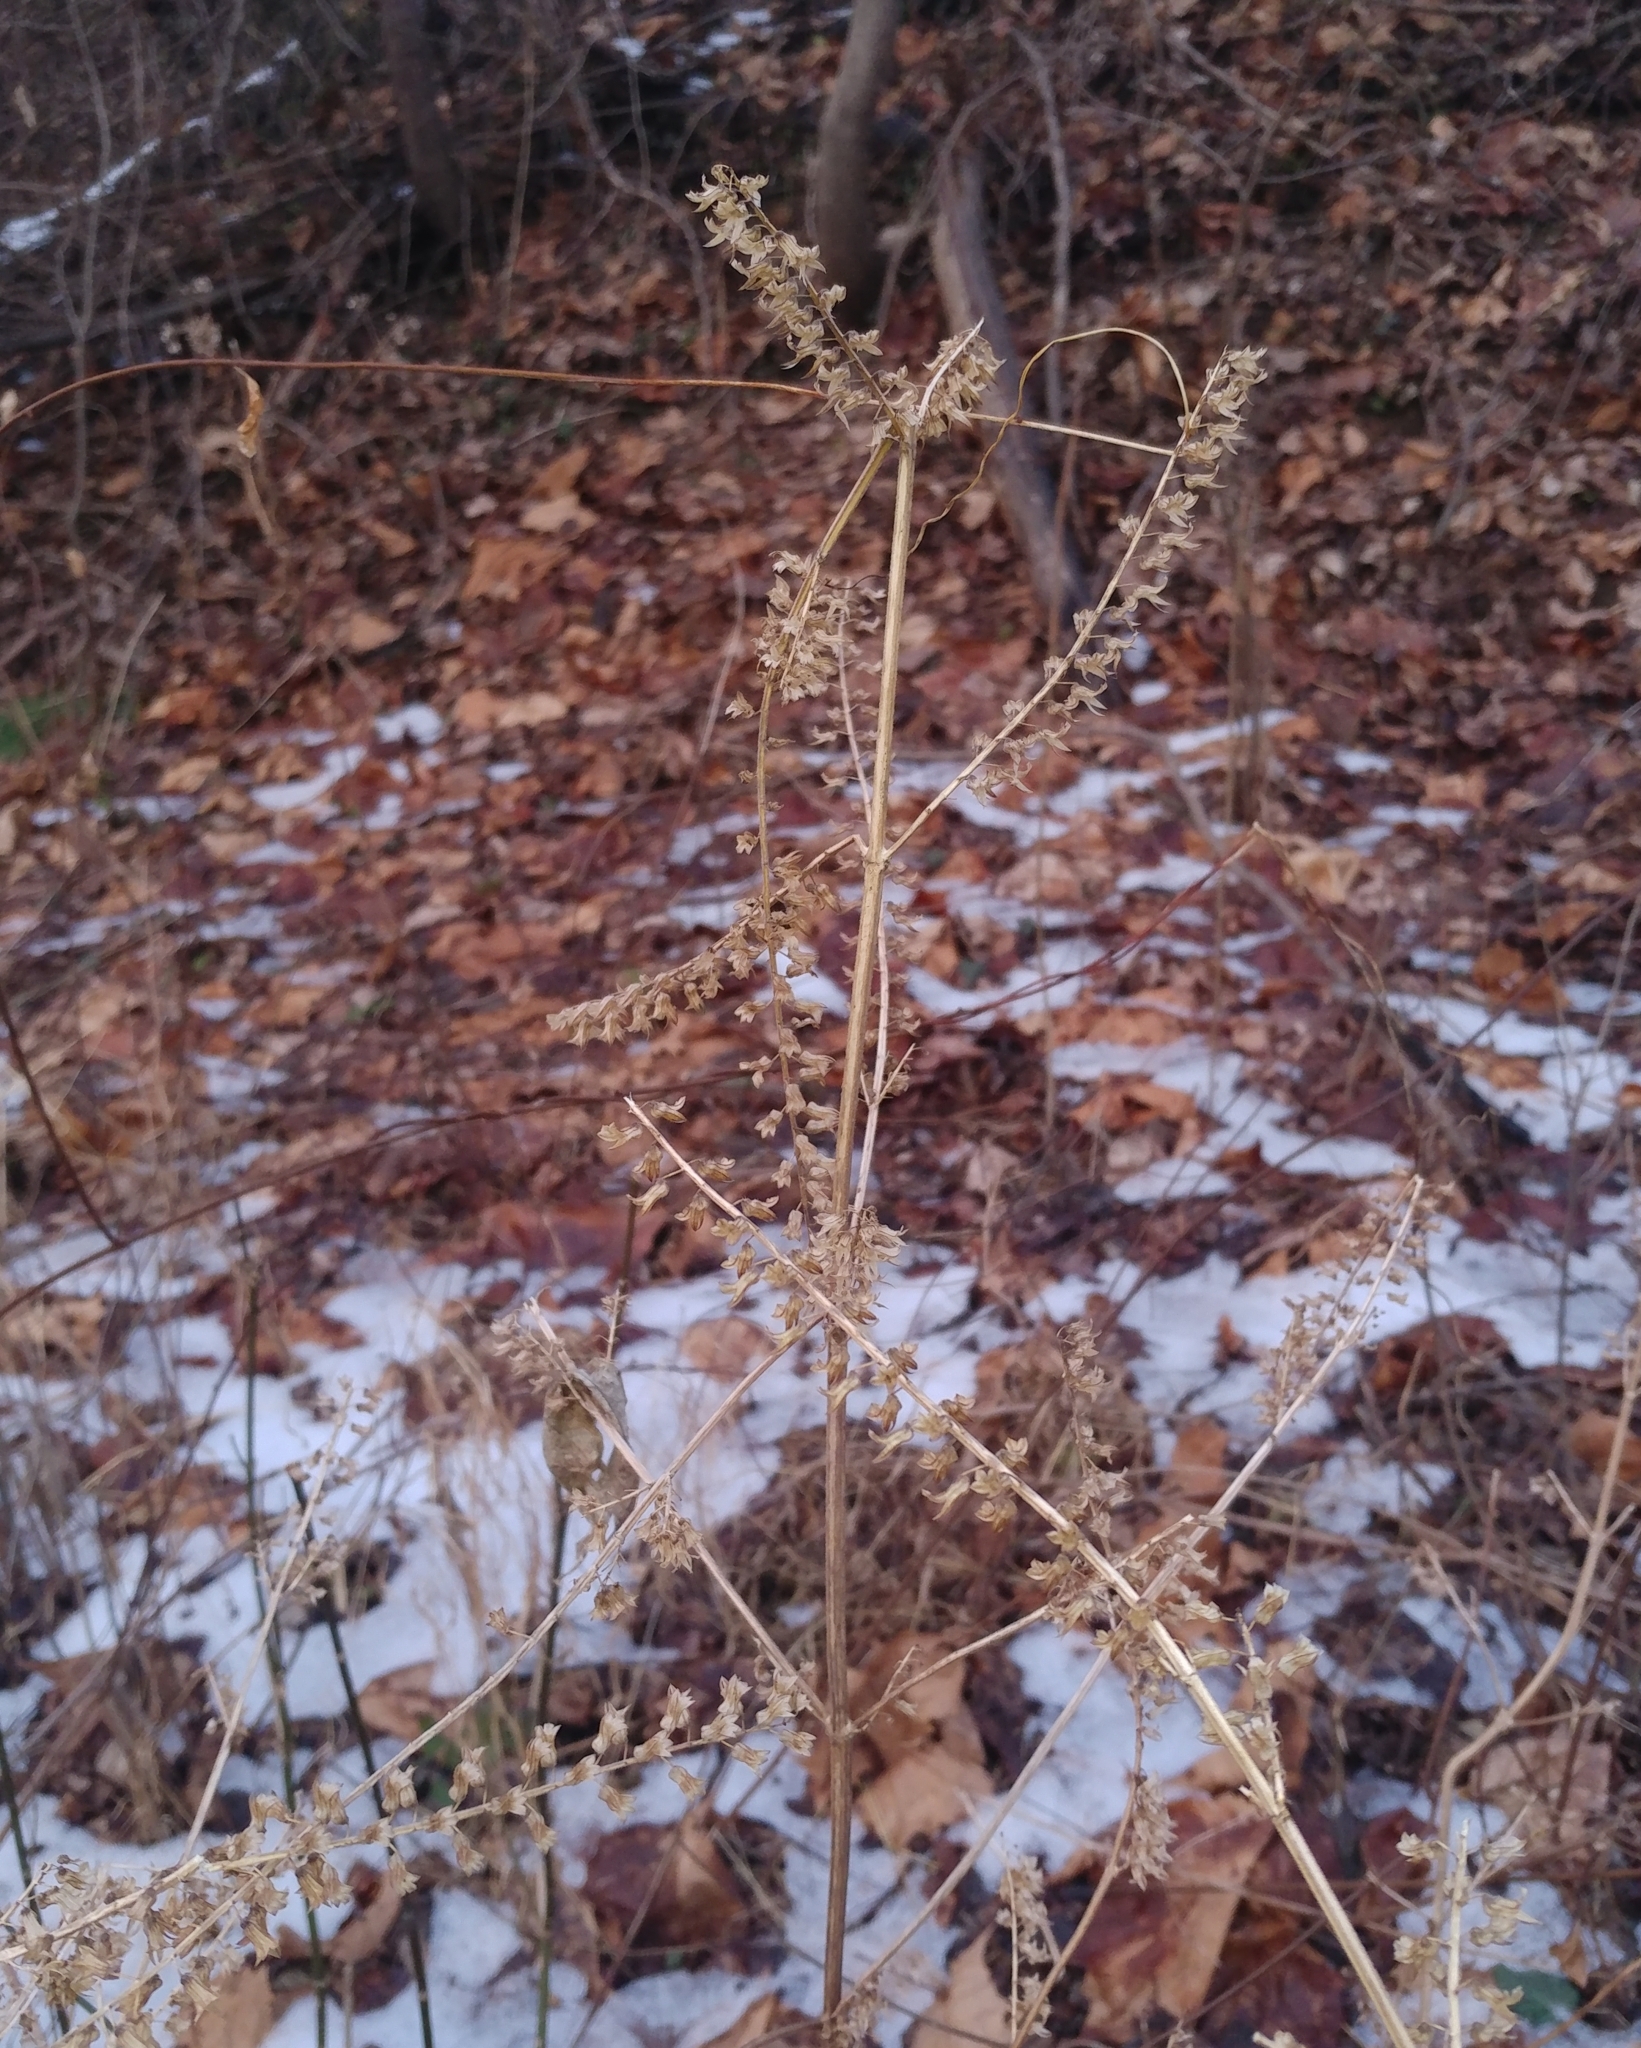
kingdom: Plantae
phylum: Tracheophyta
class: Magnoliopsida
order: Lamiales
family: Lamiaceae
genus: Perilla
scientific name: Perilla frutescens
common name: Perilla
